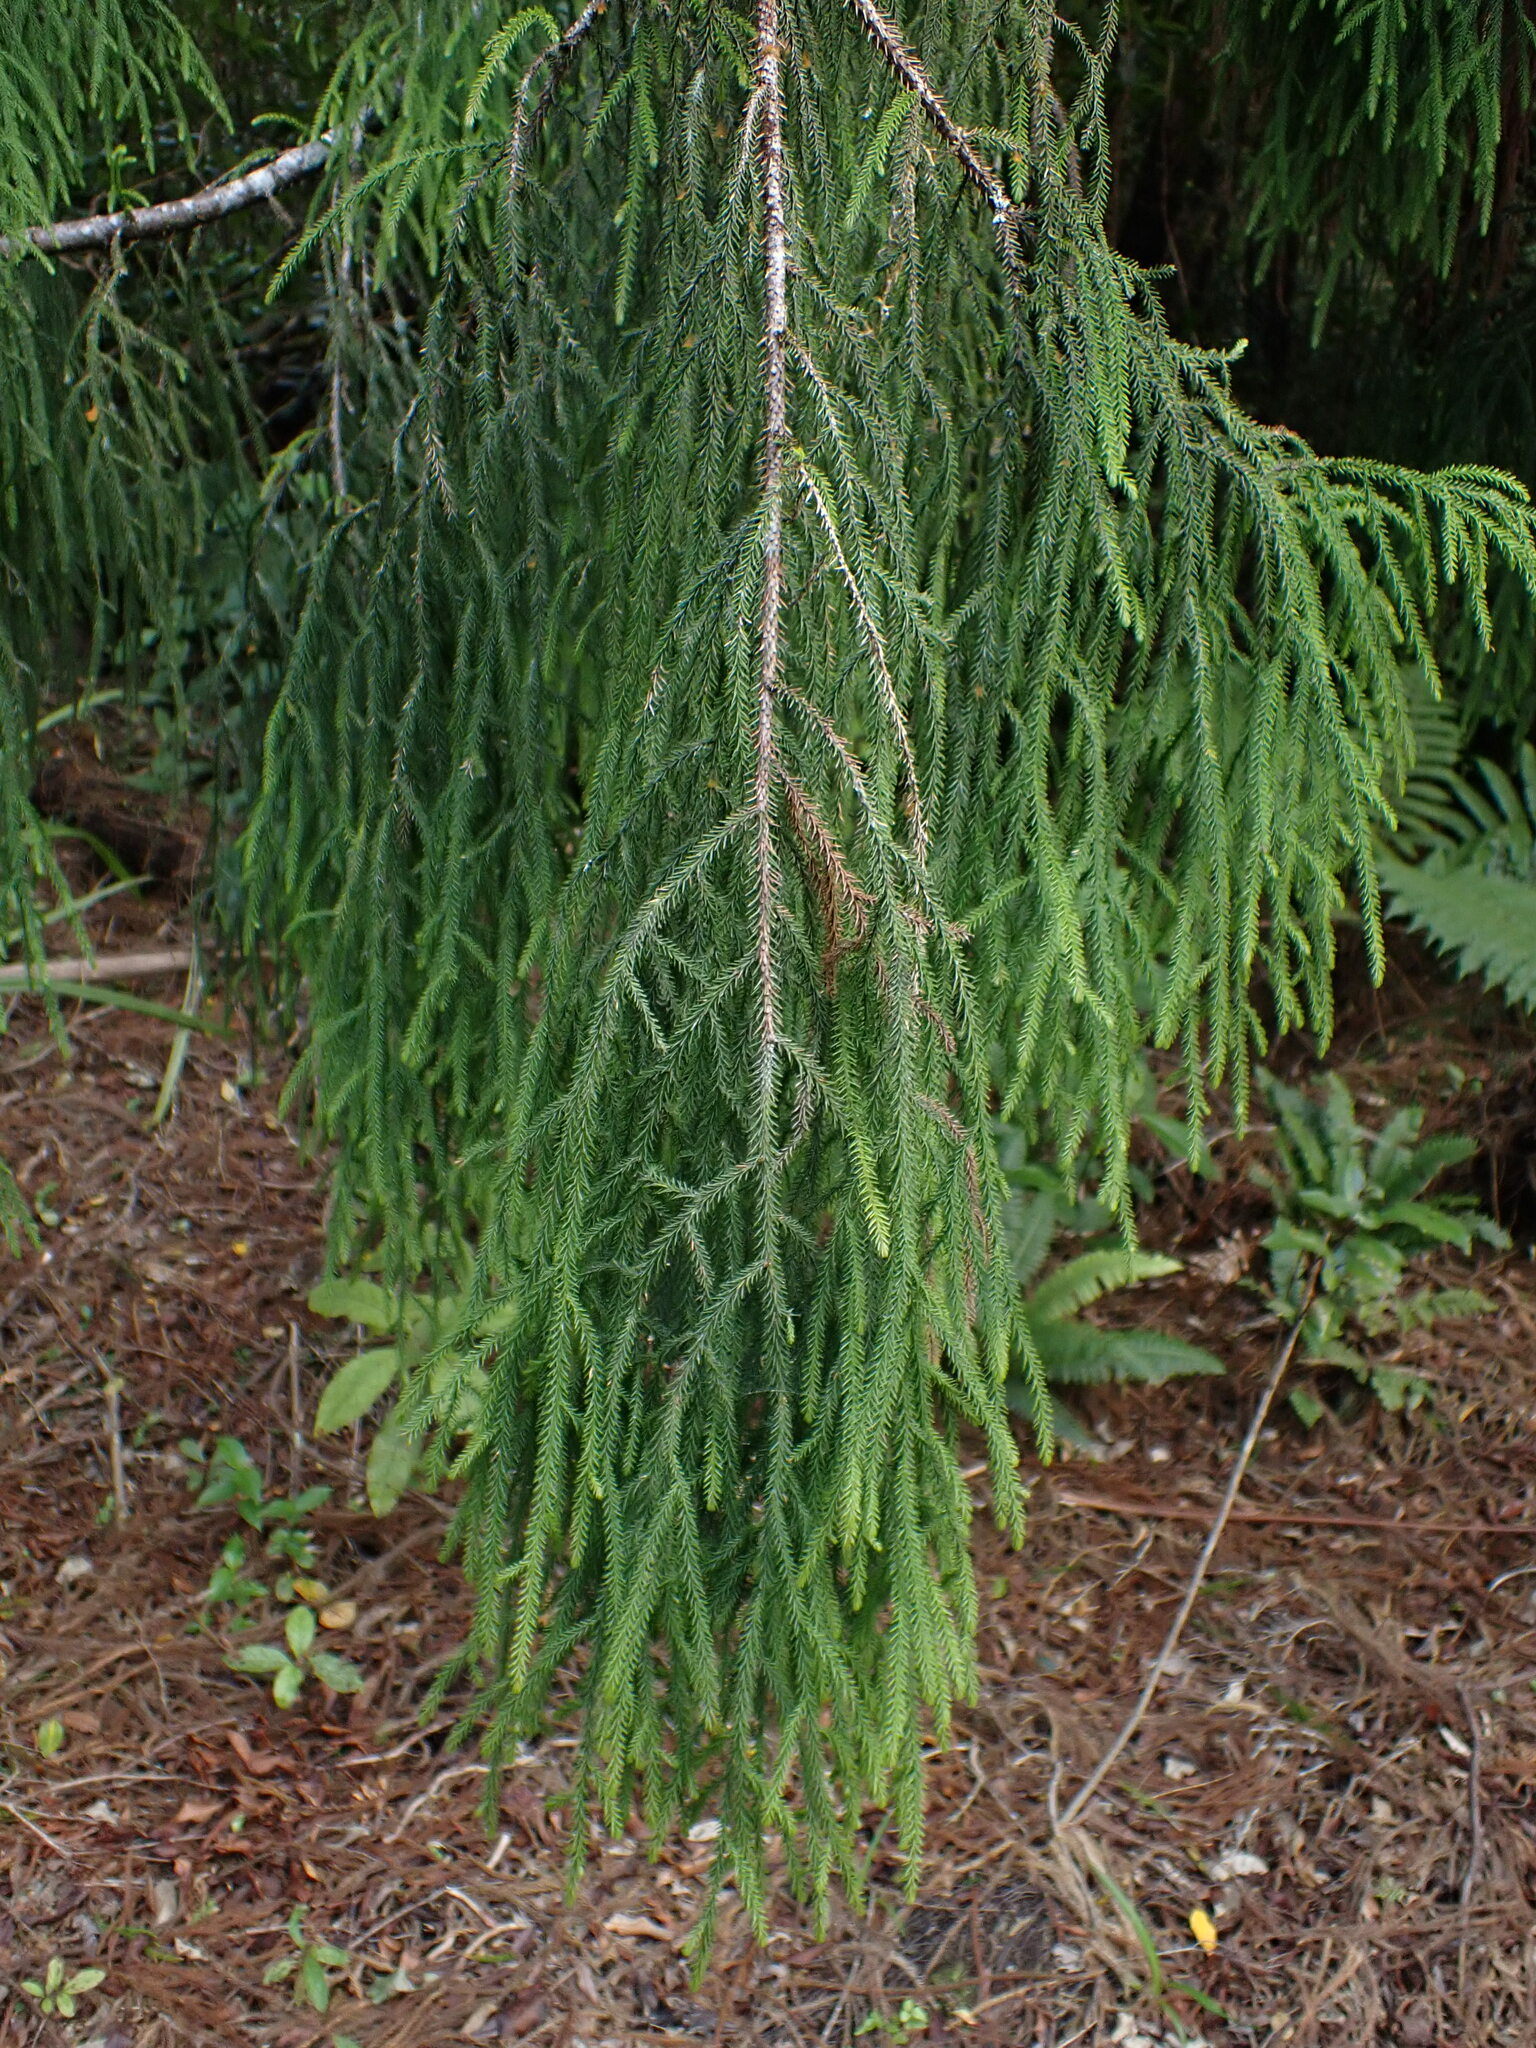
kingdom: Plantae
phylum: Tracheophyta
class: Pinopsida
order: Pinales
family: Podocarpaceae
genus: Dacrydium
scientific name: Dacrydium cupressinum
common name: Red pine
